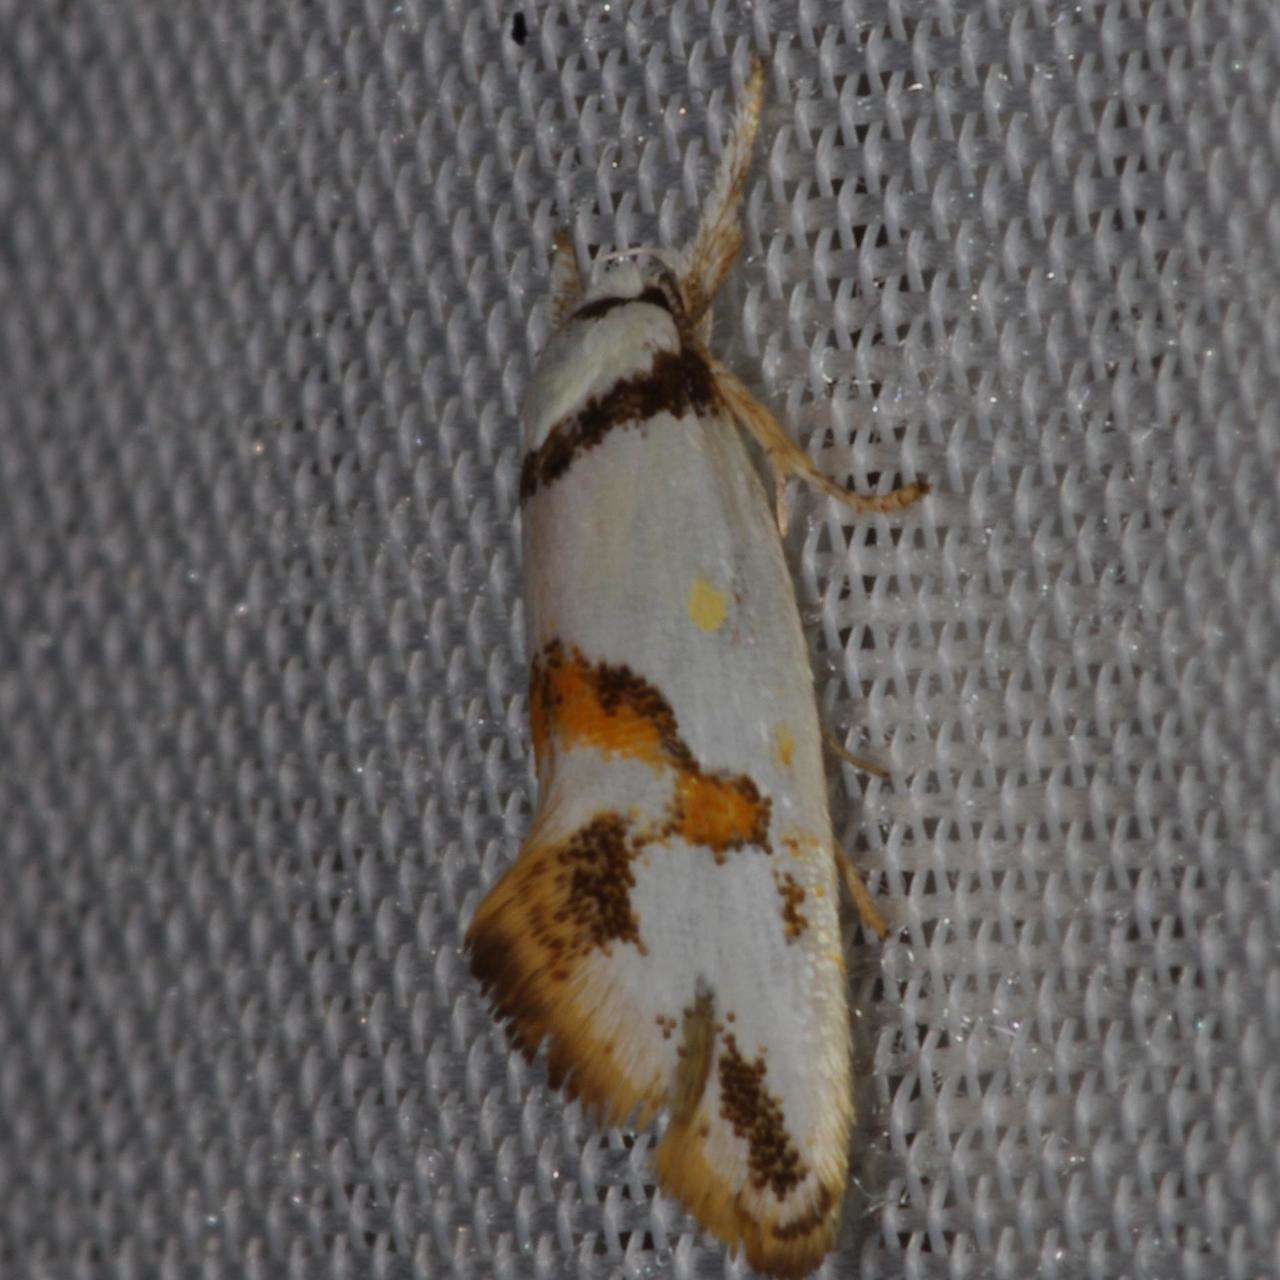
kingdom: Animalia
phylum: Arthropoda
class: Insecta
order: Lepidoptera
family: Oecophoridae
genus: Lepidotarsa
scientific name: Lepidotarsa habrodelta
